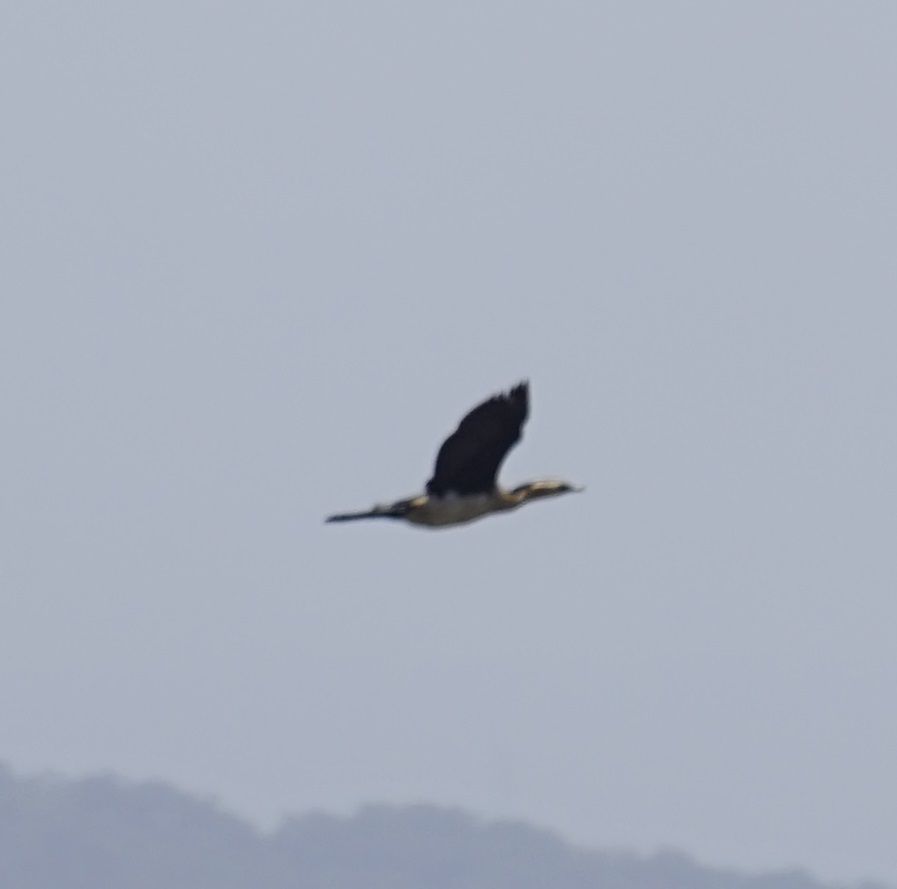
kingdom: Animalia
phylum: Chordata
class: Aves
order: Suliformes
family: Phalacrocoracidae
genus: Microcarbo
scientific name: Microcarbo melanoleucos
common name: Little pied cormorant
